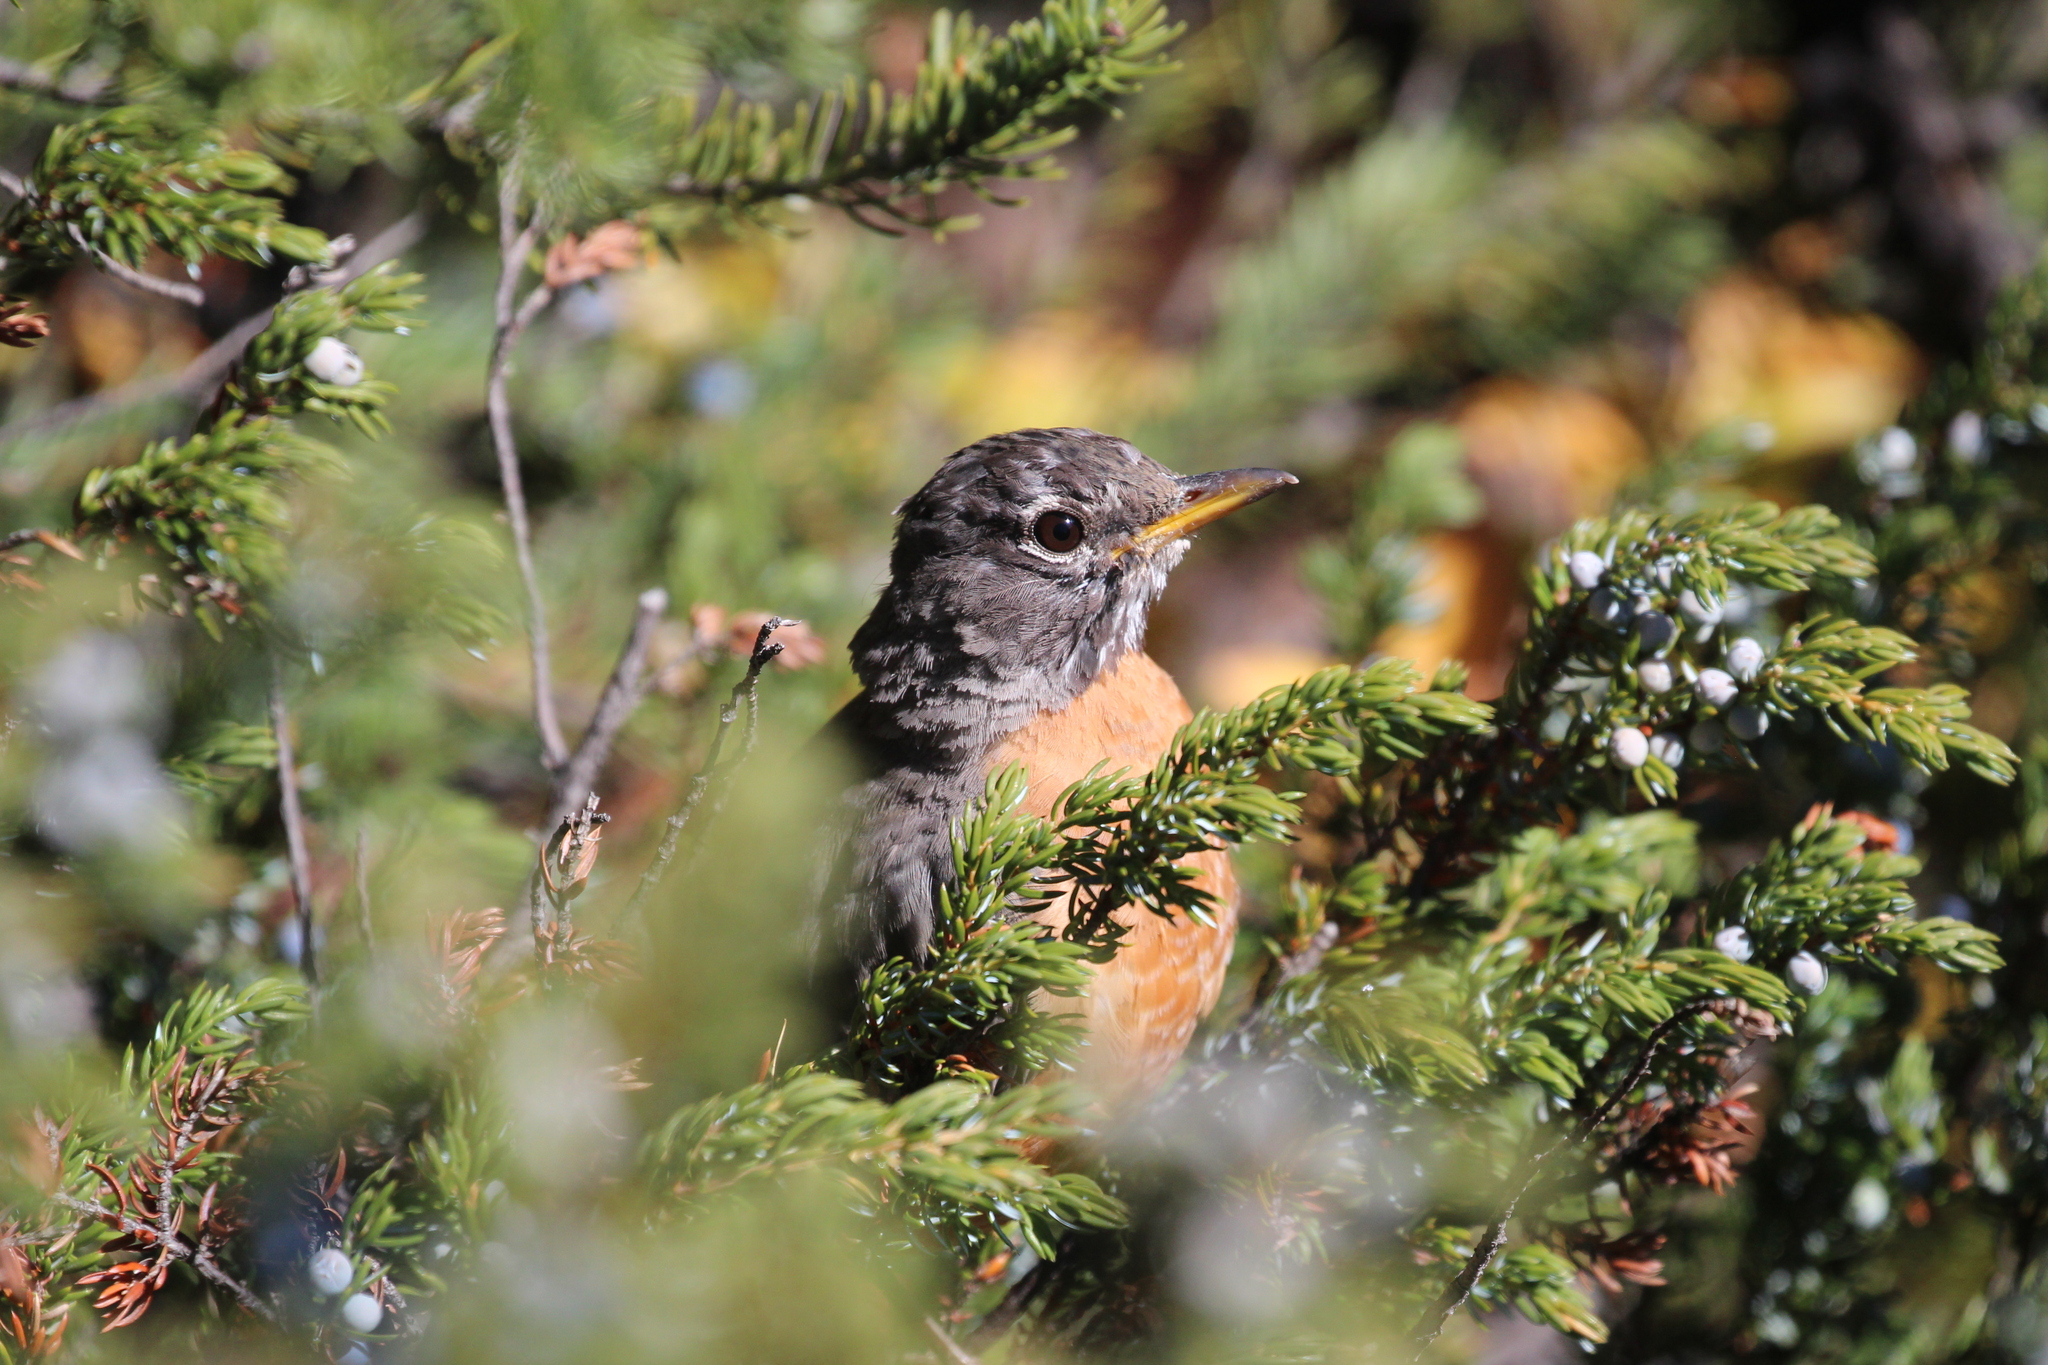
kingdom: Animalia
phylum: Chordata
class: Aves
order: Passeriformes
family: Turdidae
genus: Turdus
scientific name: Turdus migratorius
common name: American robin
